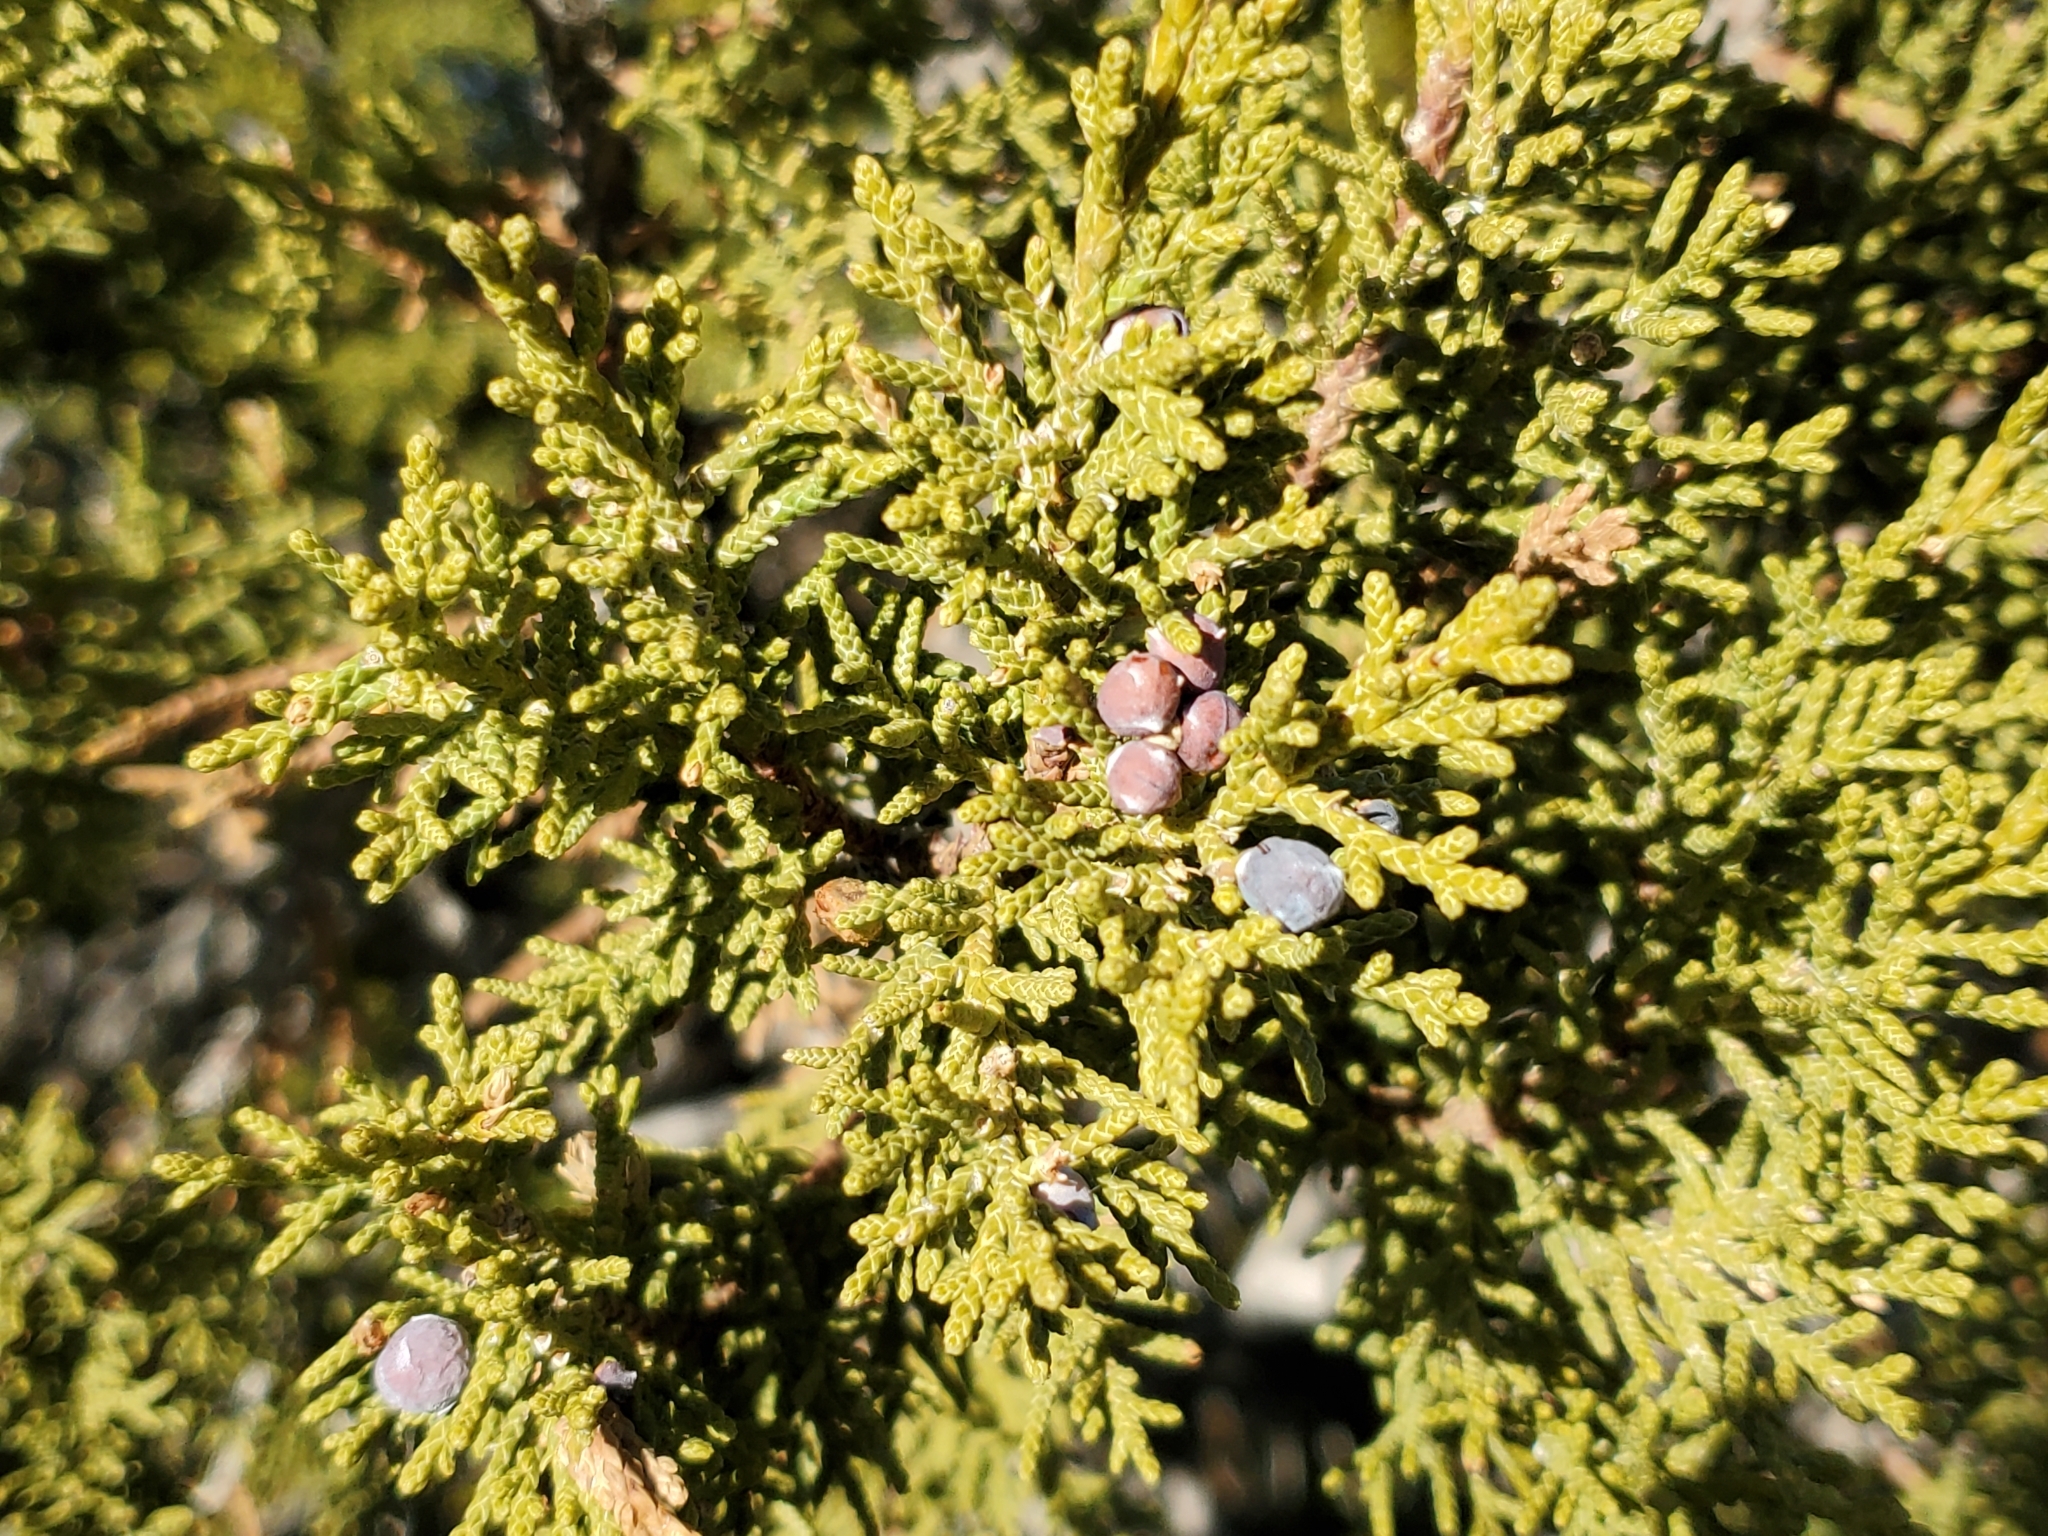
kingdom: Plantae
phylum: Tracheophyta
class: Pinopsida
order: Pinales
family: Cupressaceae
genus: Juniperus
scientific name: Juniperus monosperma
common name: One-seed juniper
